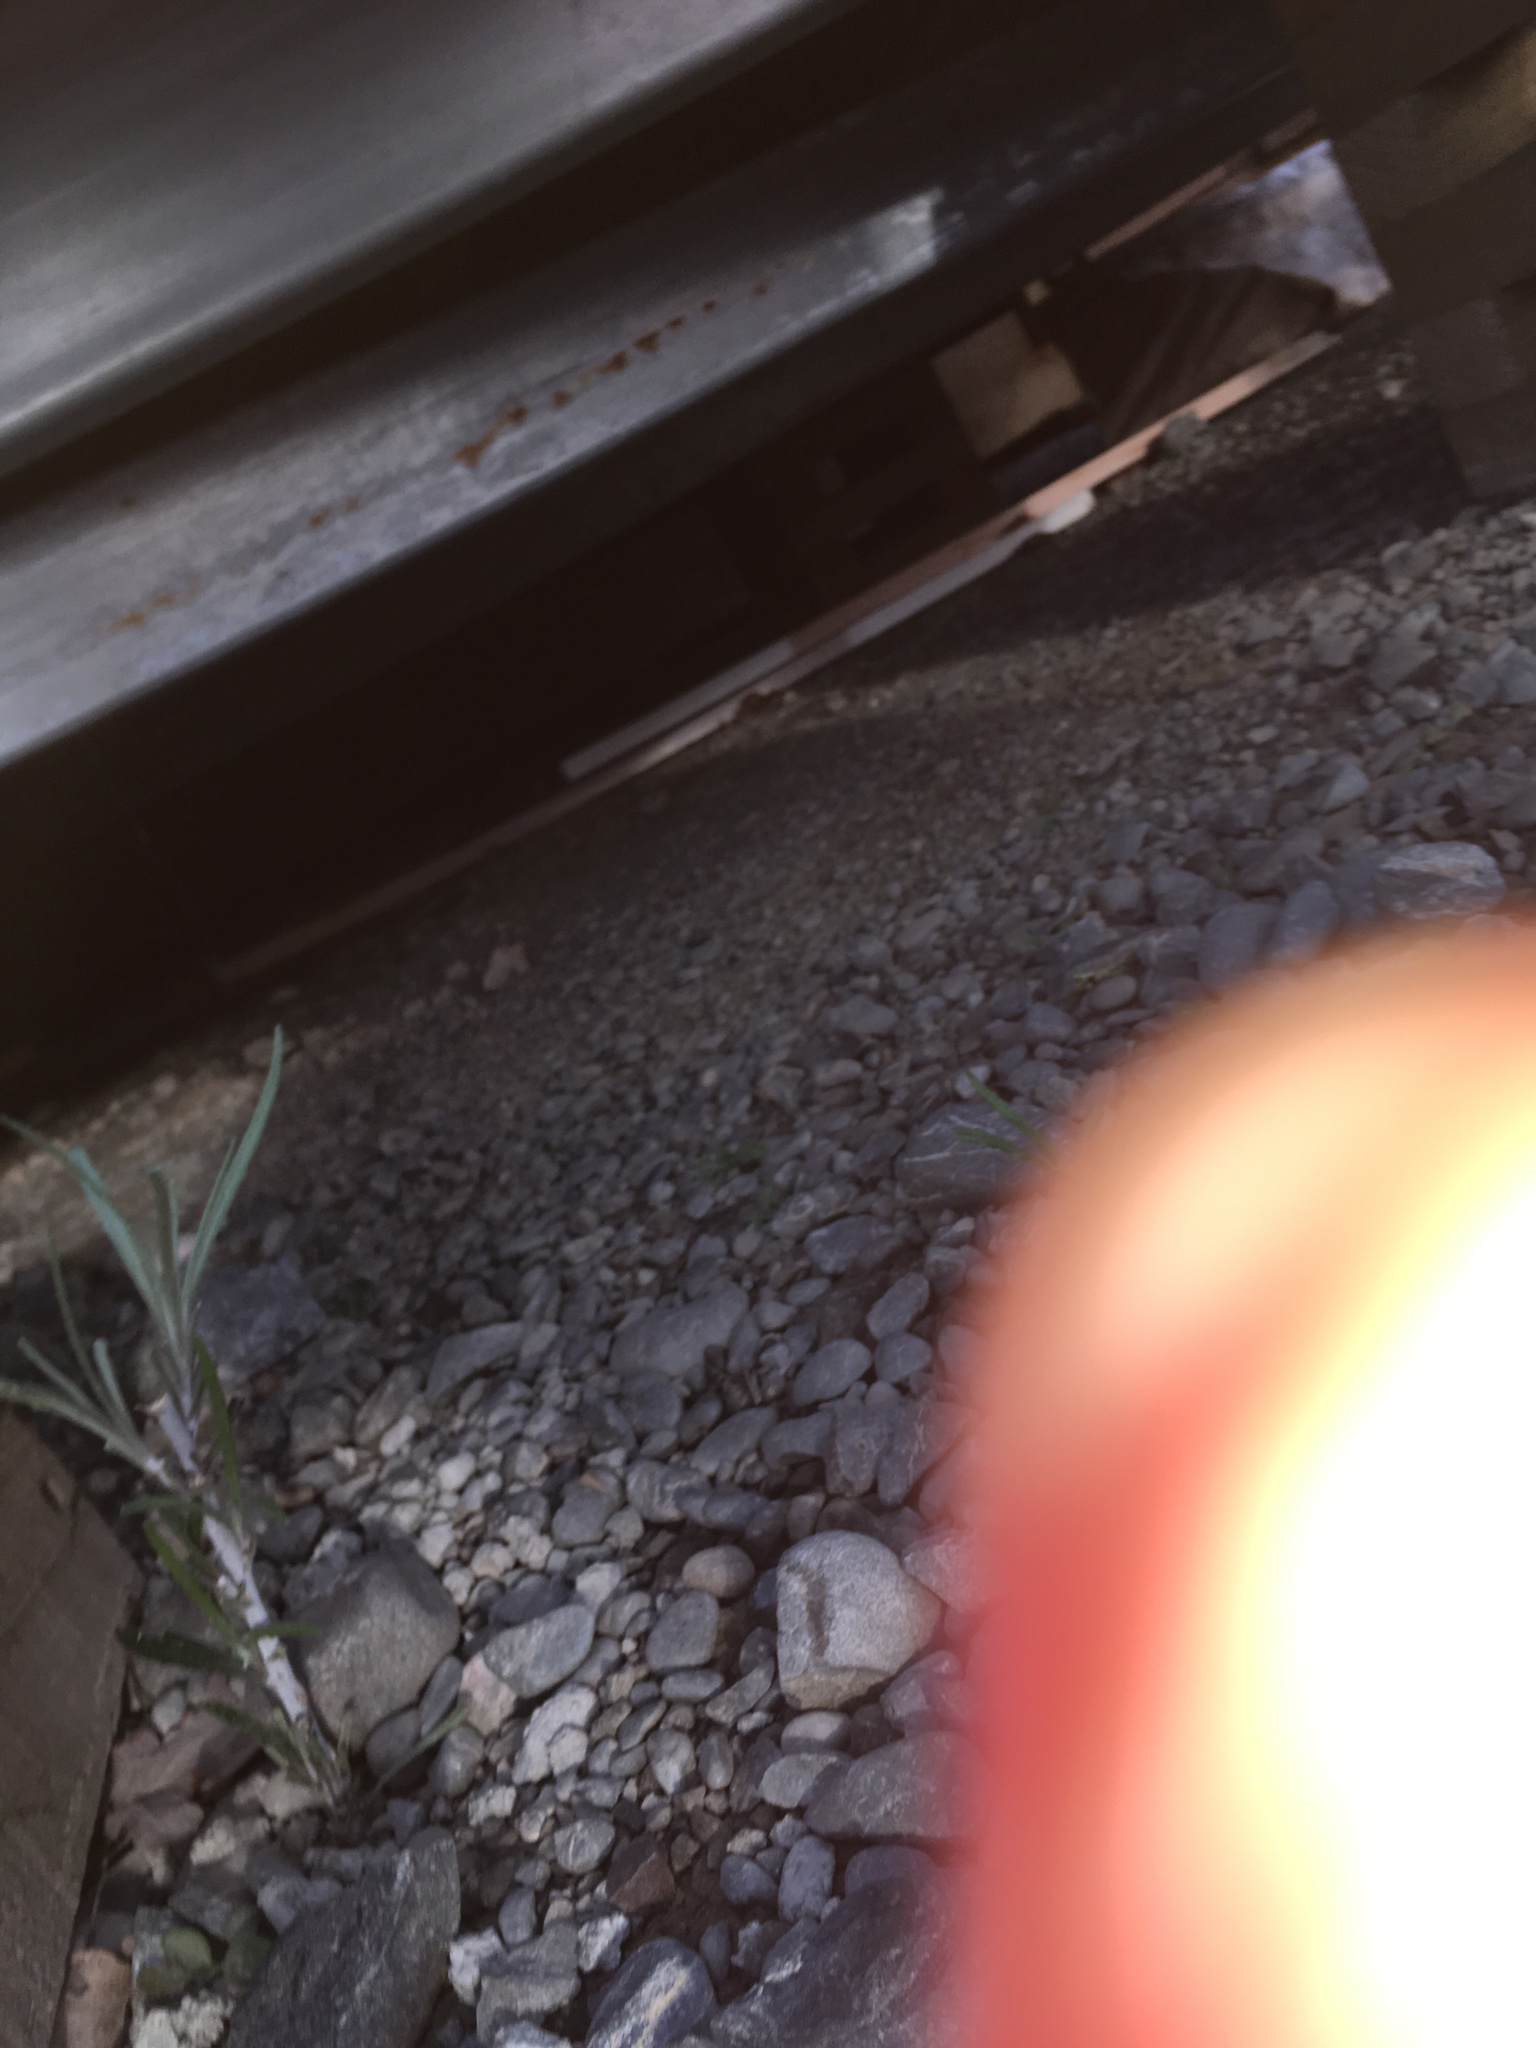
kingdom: Plantae
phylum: Tracheophyta
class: Magnoliopsida
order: Asterales
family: Asteraceae
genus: Senecio
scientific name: Senecio quadridentatus
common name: Cotton fireweed
